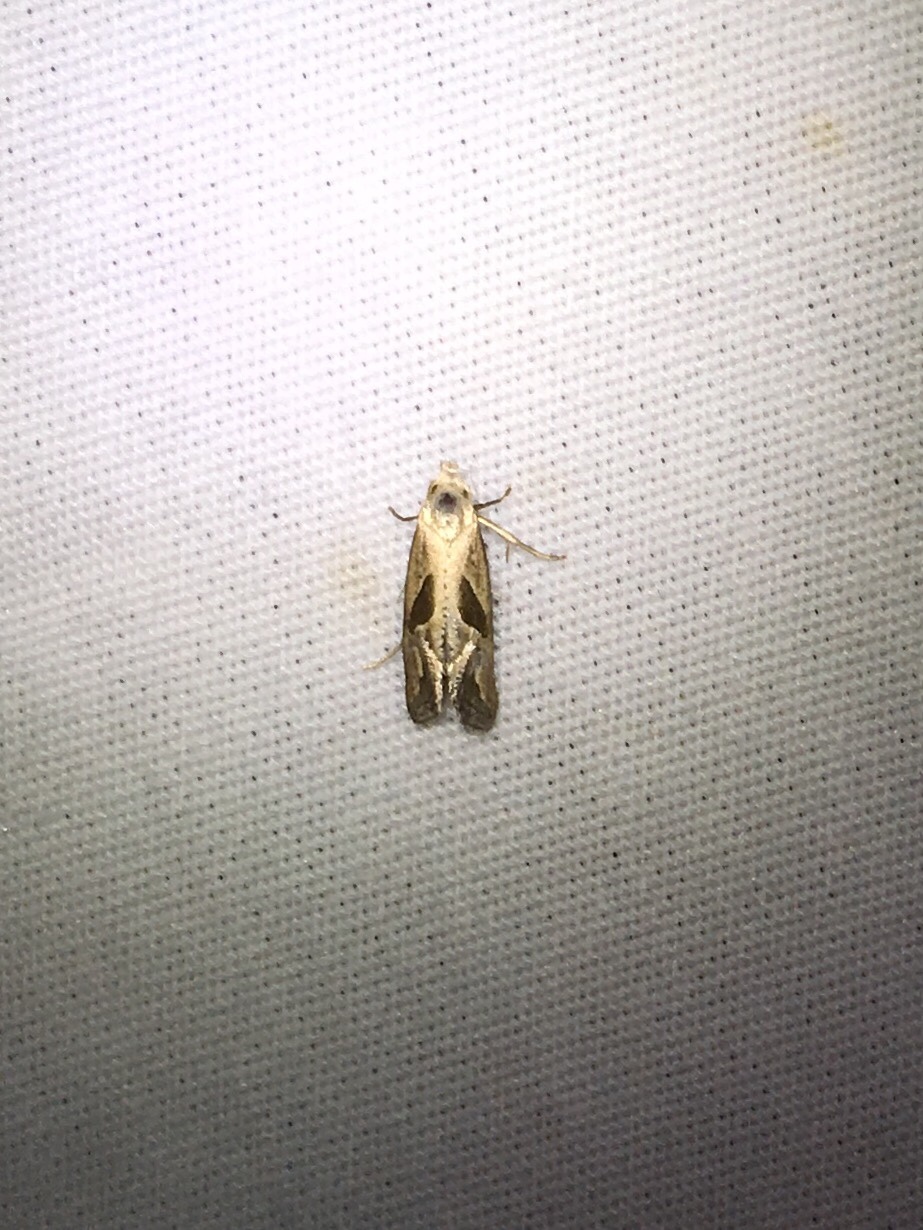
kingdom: Animalia
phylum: Arthropoda
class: Insecta
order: Lepidoptera
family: Tortricidae
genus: Eugnosta
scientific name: Eugnosta bimaculana
